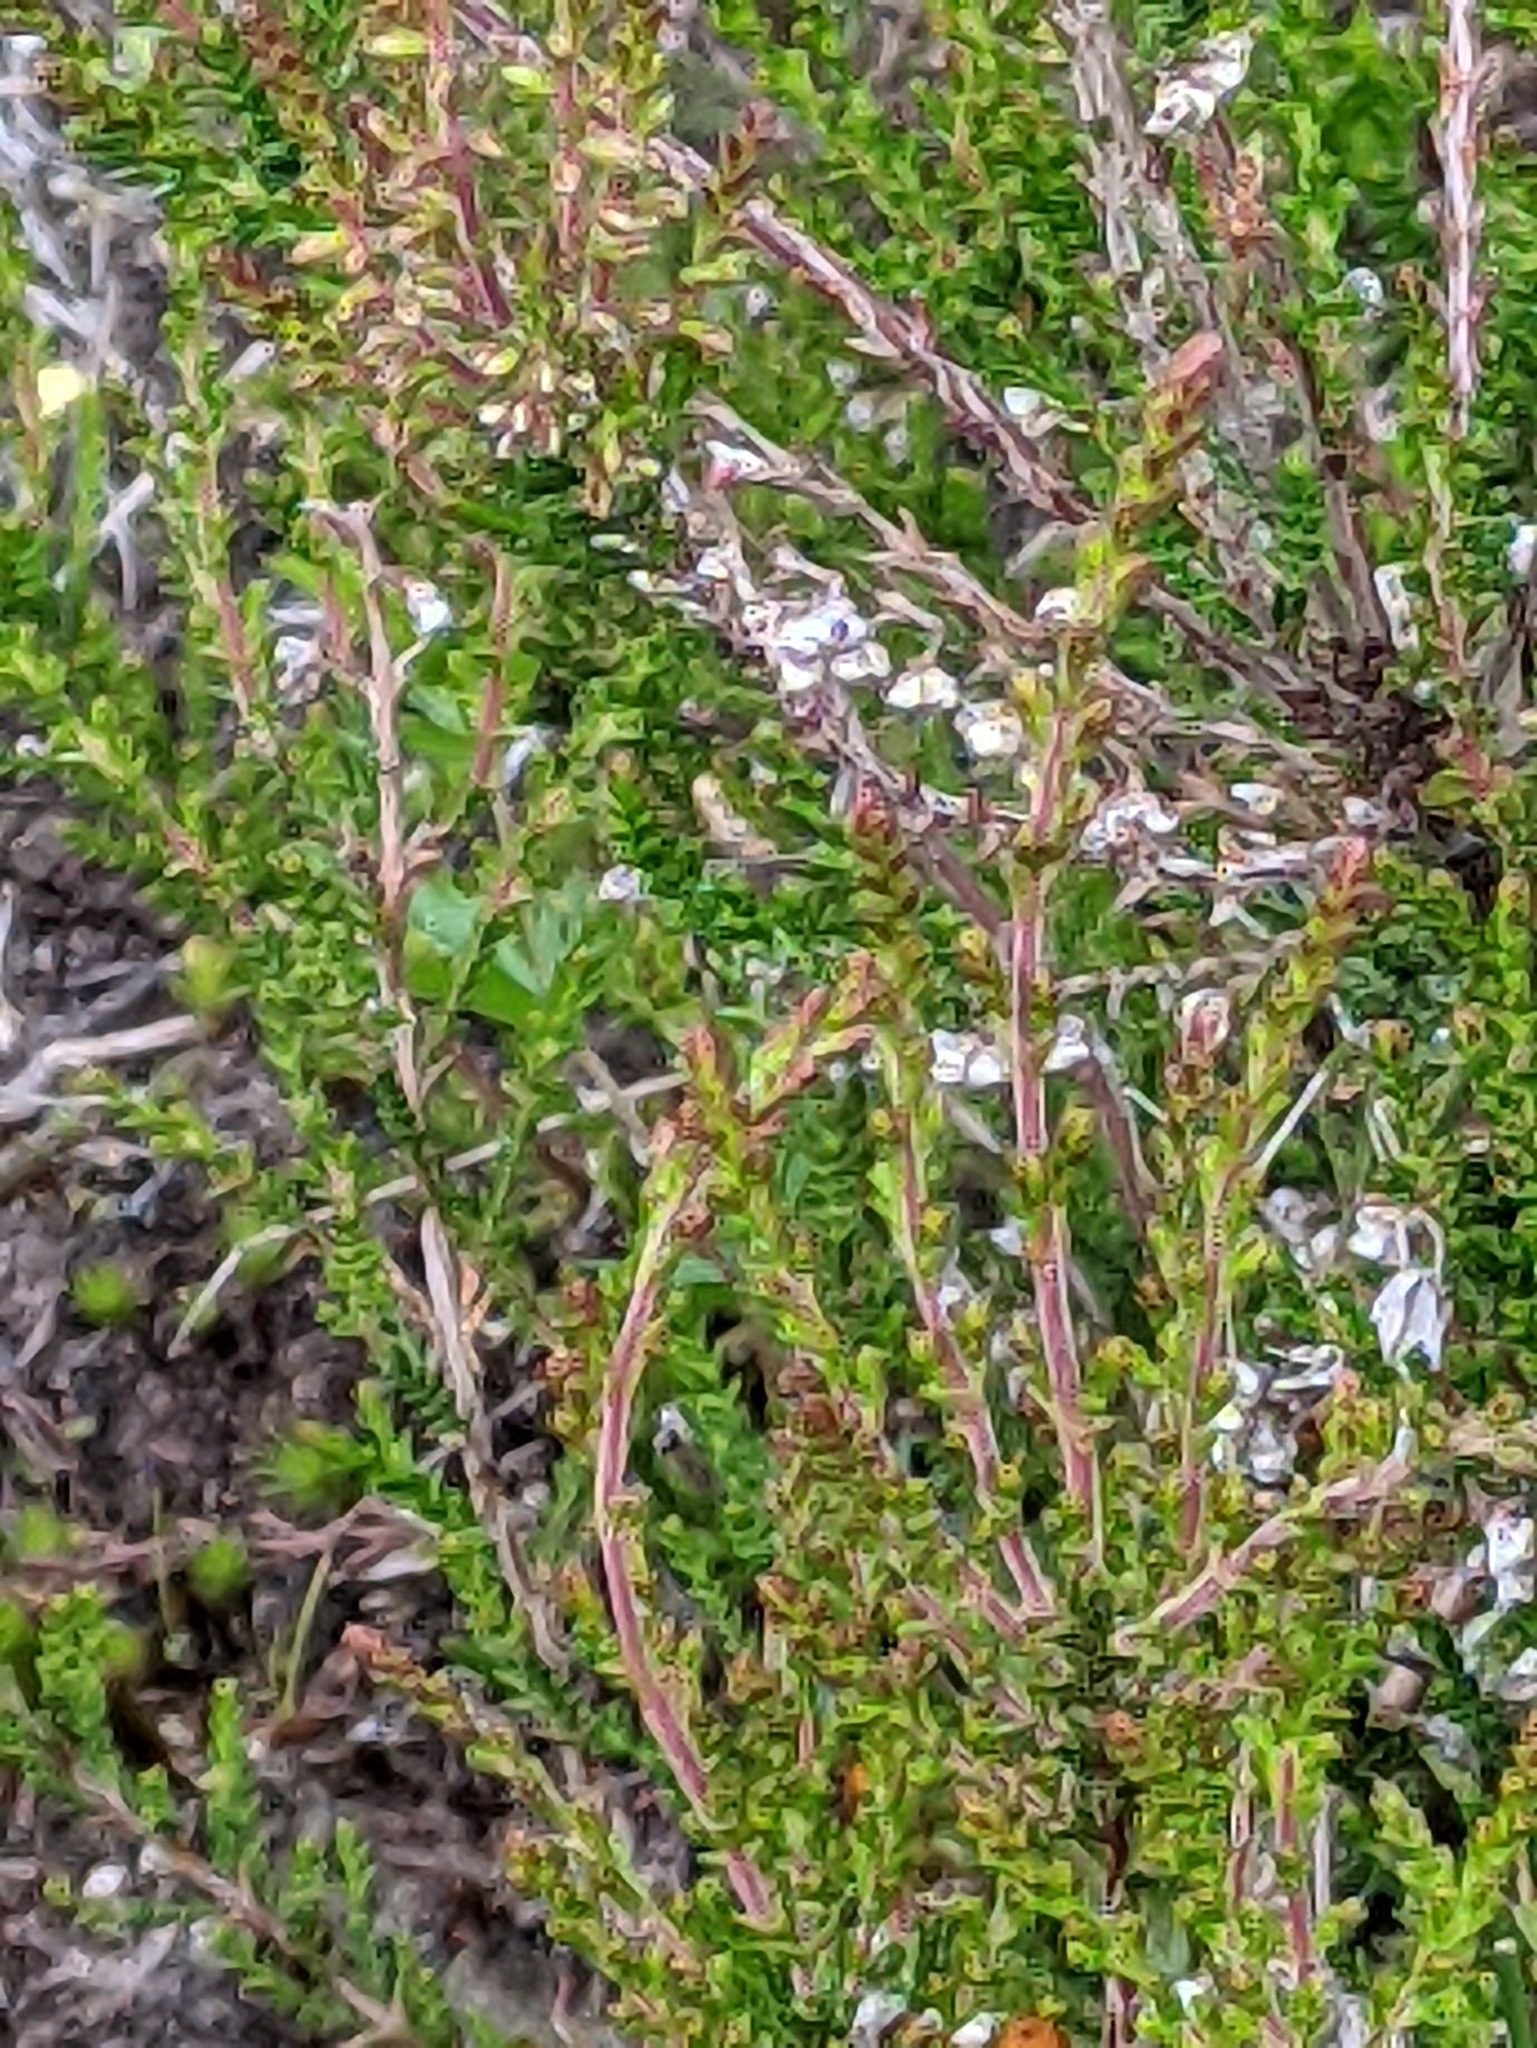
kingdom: Plantae
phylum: Tracheophyta
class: Magnoliopsida
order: Ericales
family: Ericaceae
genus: Calluna
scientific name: Calluna vulgaris
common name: Heather
